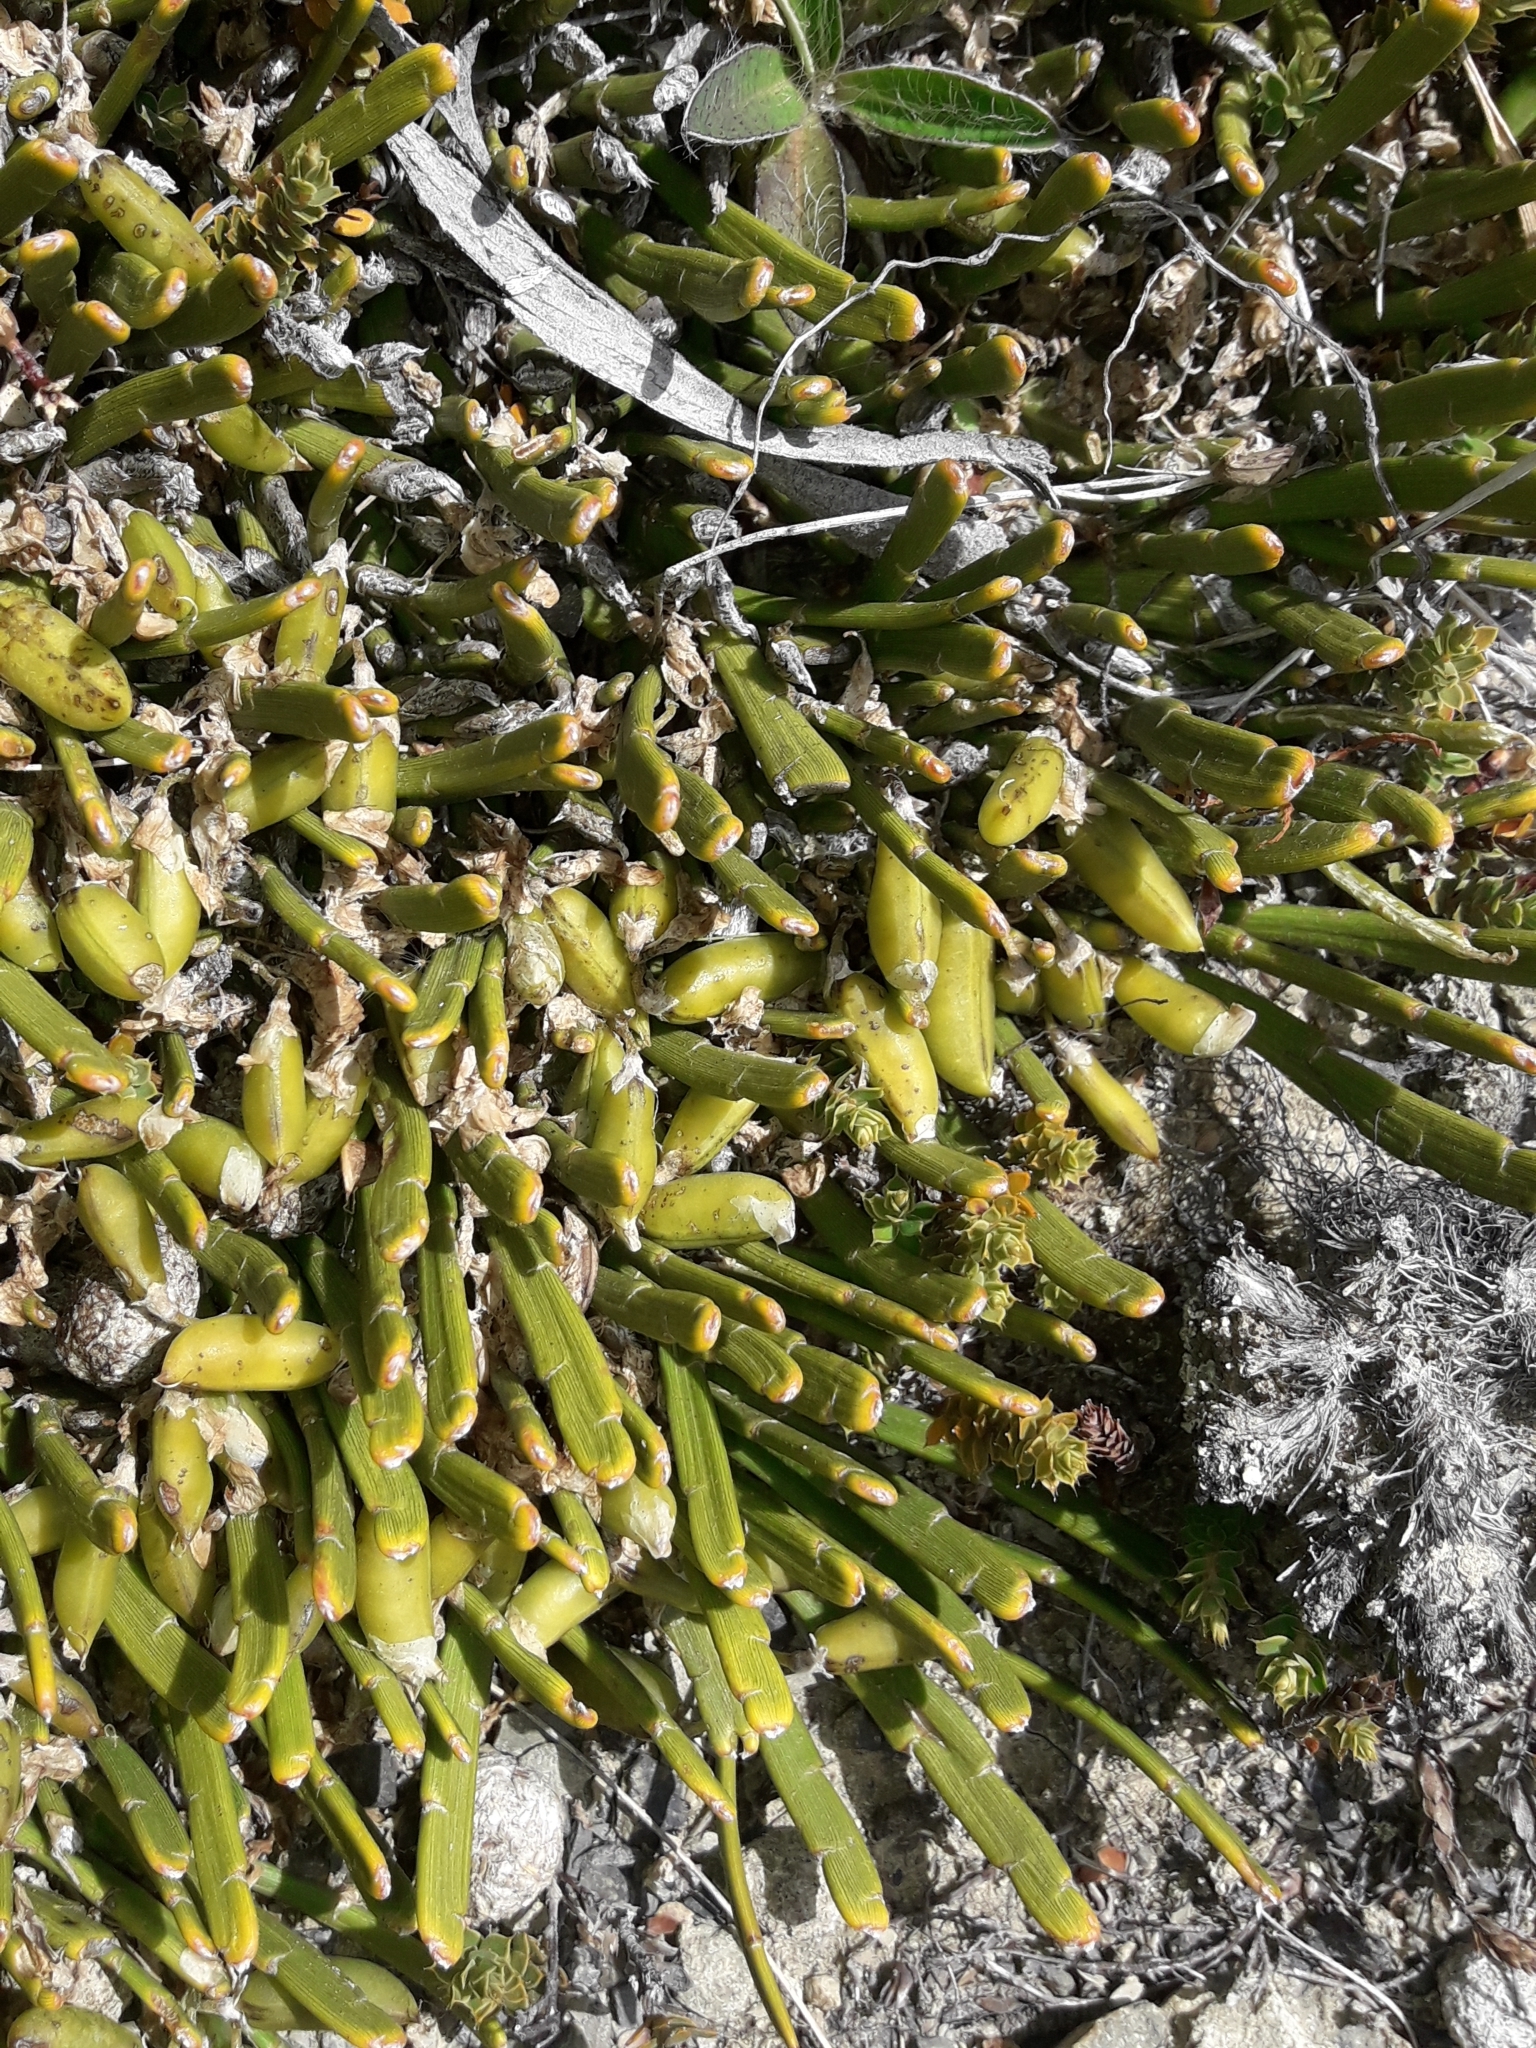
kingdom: Plantae
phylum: Tracheophyta
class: Magnoliopsida
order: Fabales
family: Fabaceae
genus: Carmichaelia
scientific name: Carmichaelia monroi
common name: Stout dwarf broom
